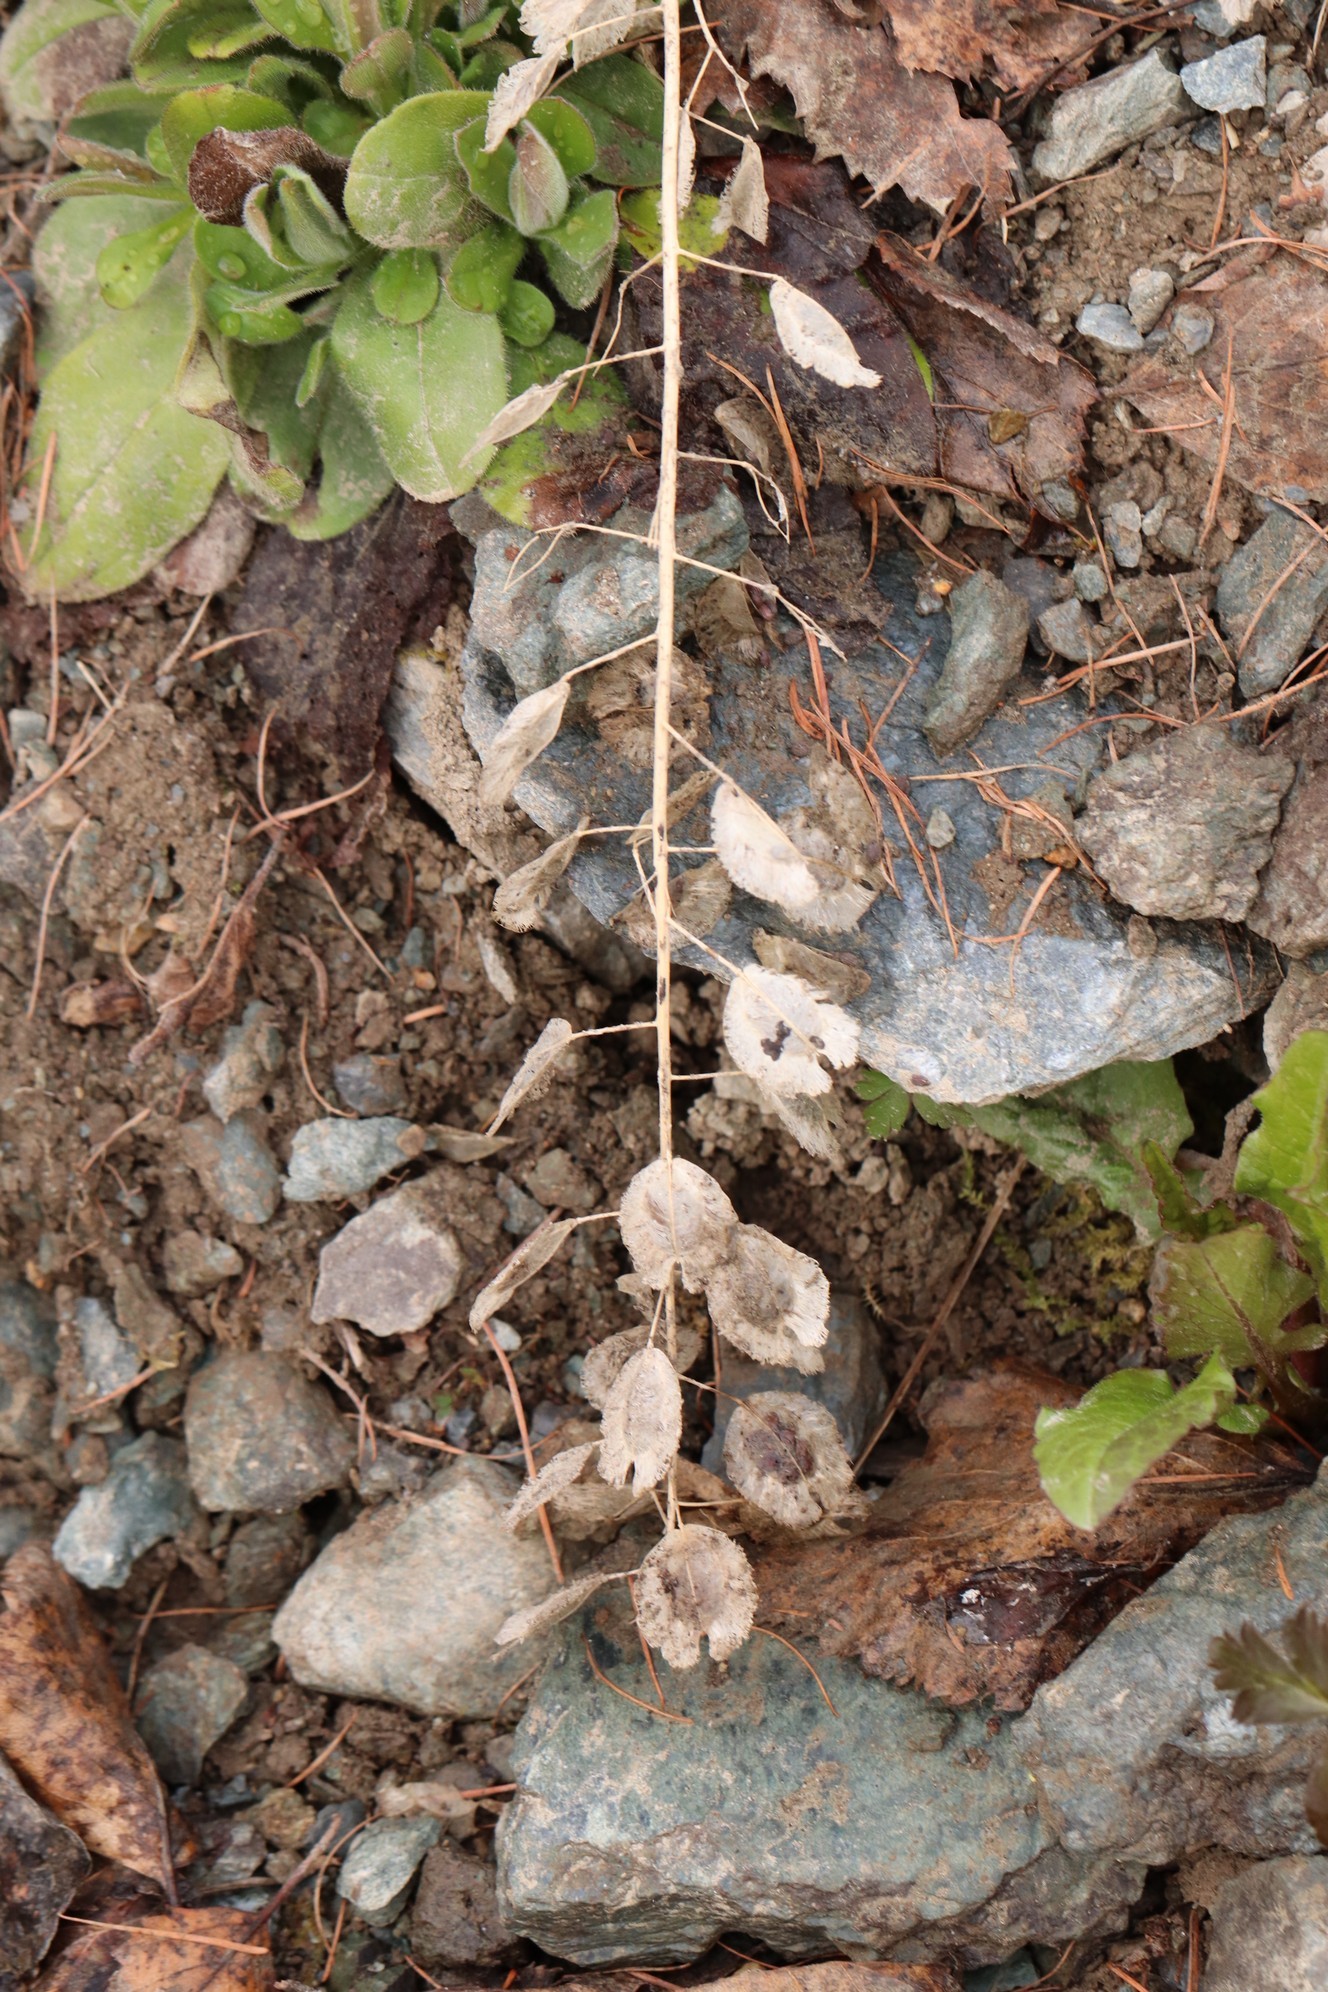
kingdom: Plantae
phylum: Tracheophyta
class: Magnoliopsida
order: Brassicales
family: Brassicaceae
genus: Thlaspi
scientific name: Thlaspi arvense
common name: Field pennycress
